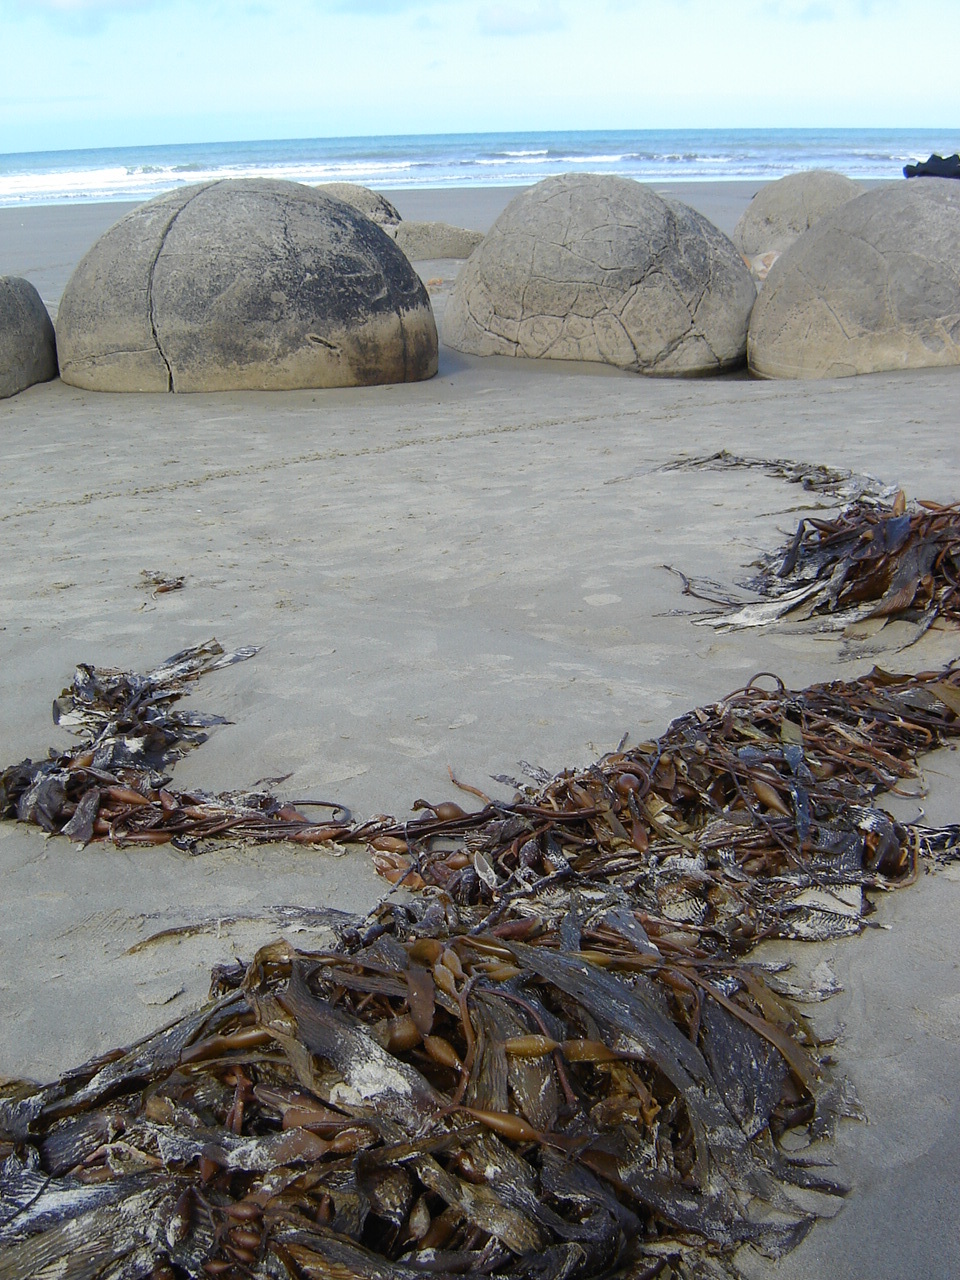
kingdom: Chromista
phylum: Ochrophyta
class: Phaeophyceae
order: Laminariales
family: Laminariaceae
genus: Macrocystis
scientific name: Macrocystis pyrifera
